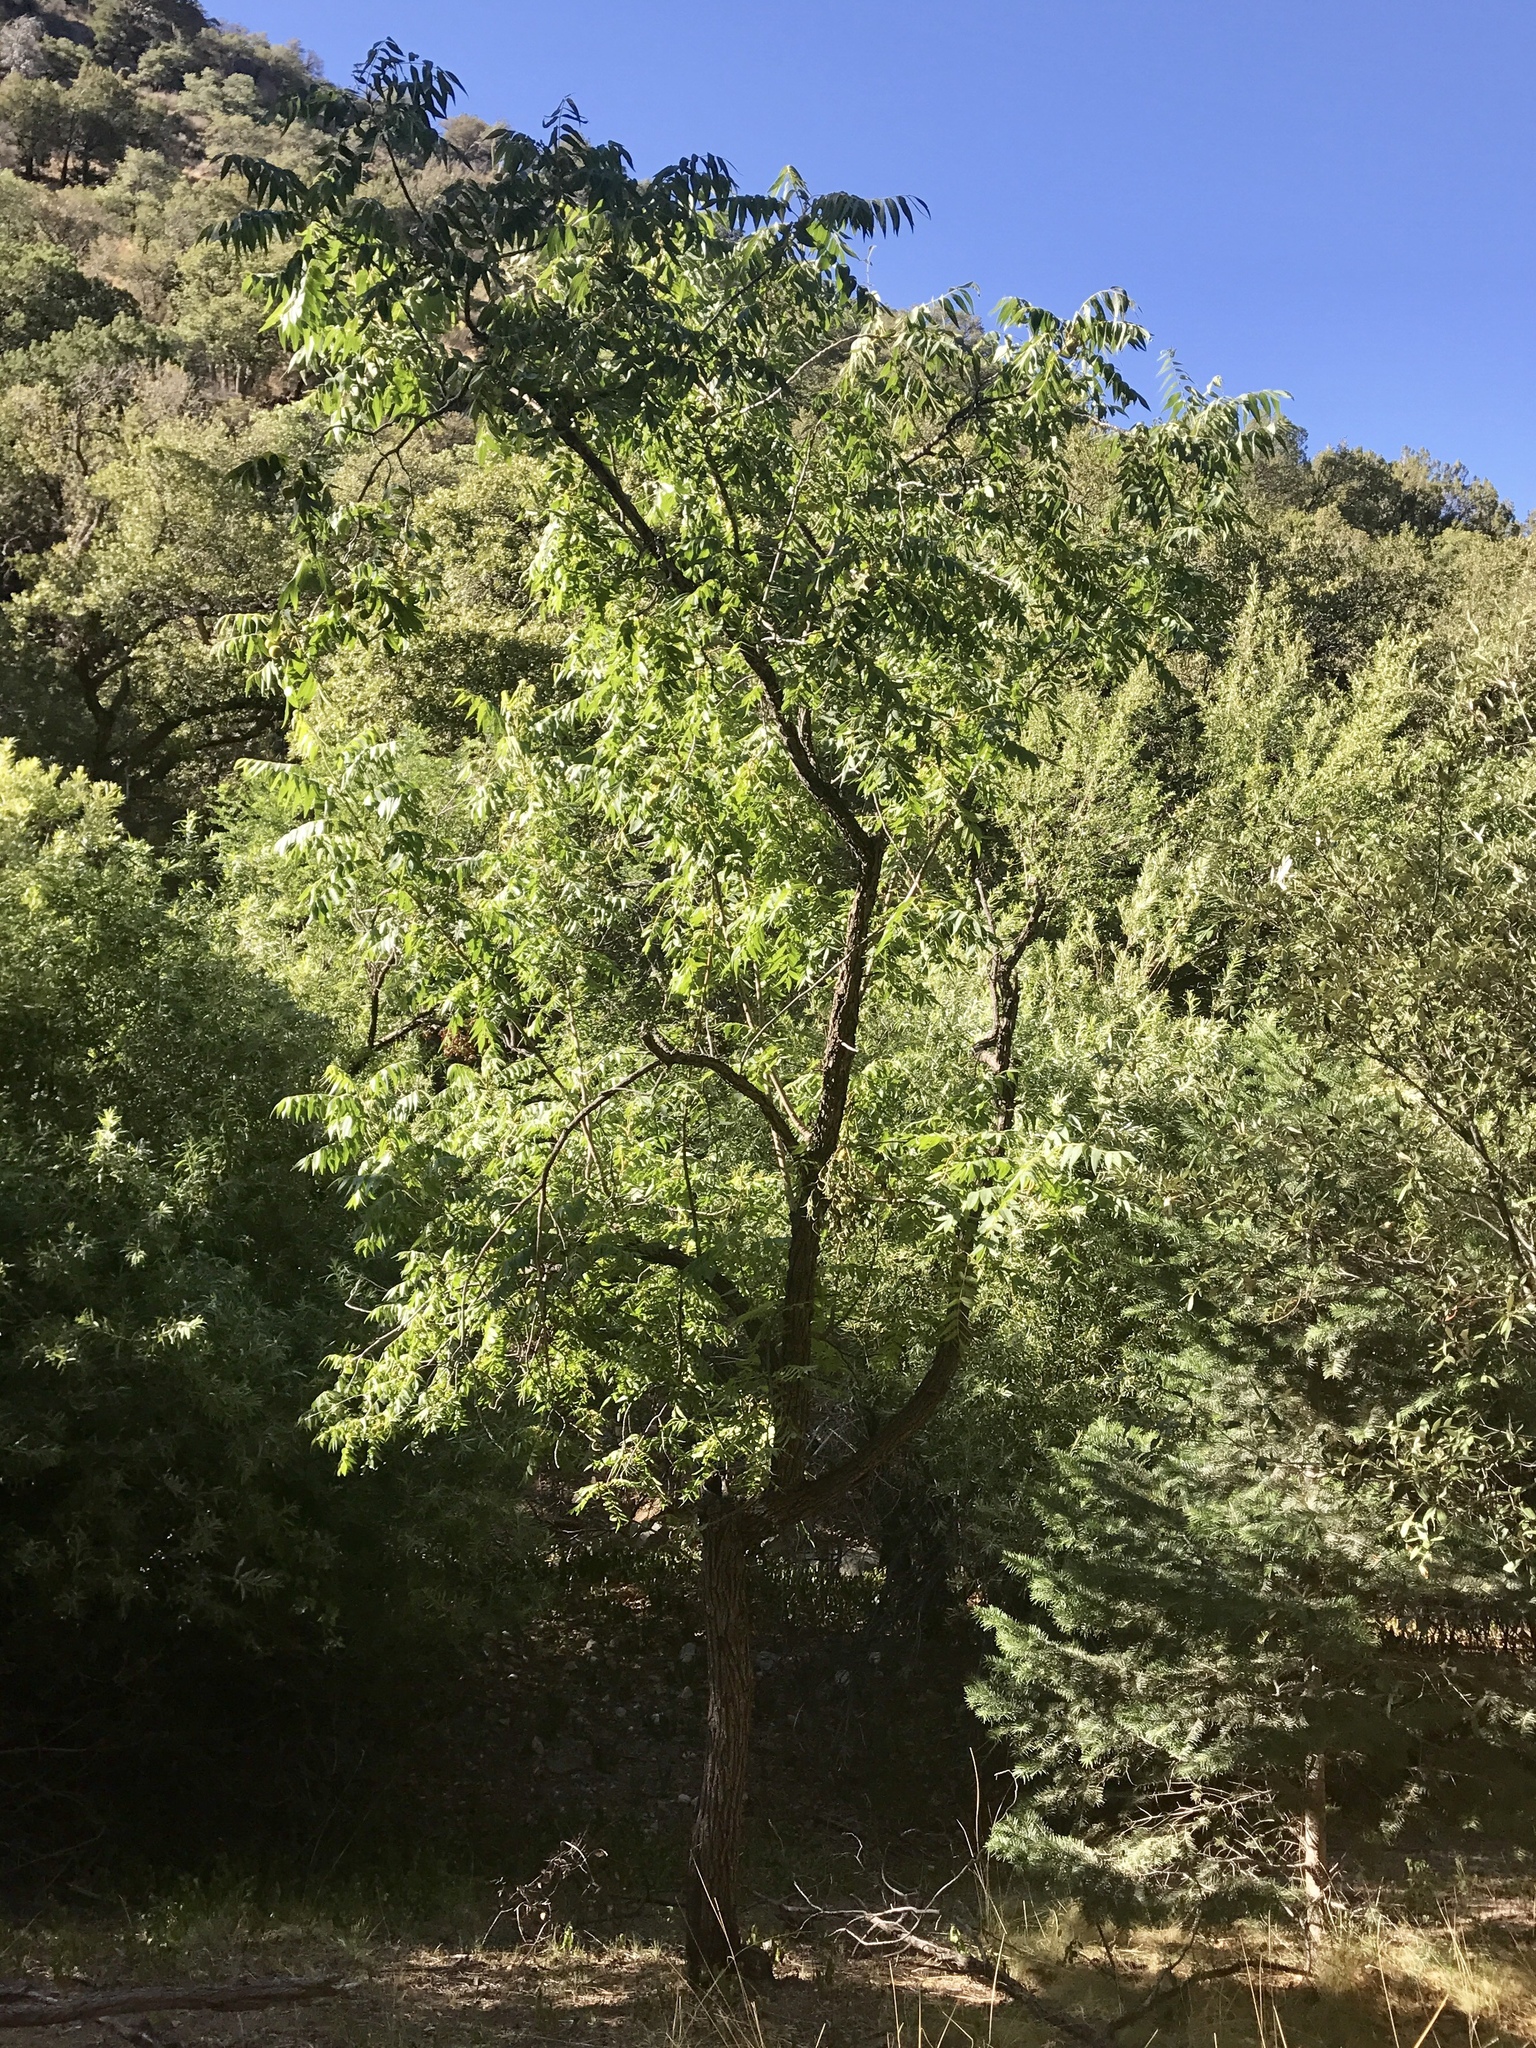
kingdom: Plantae
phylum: Tracheophyta
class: Magnoliopsida
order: Fagales
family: Juglandaceae
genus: Juglans
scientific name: Juglans major
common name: Arizona walnut
